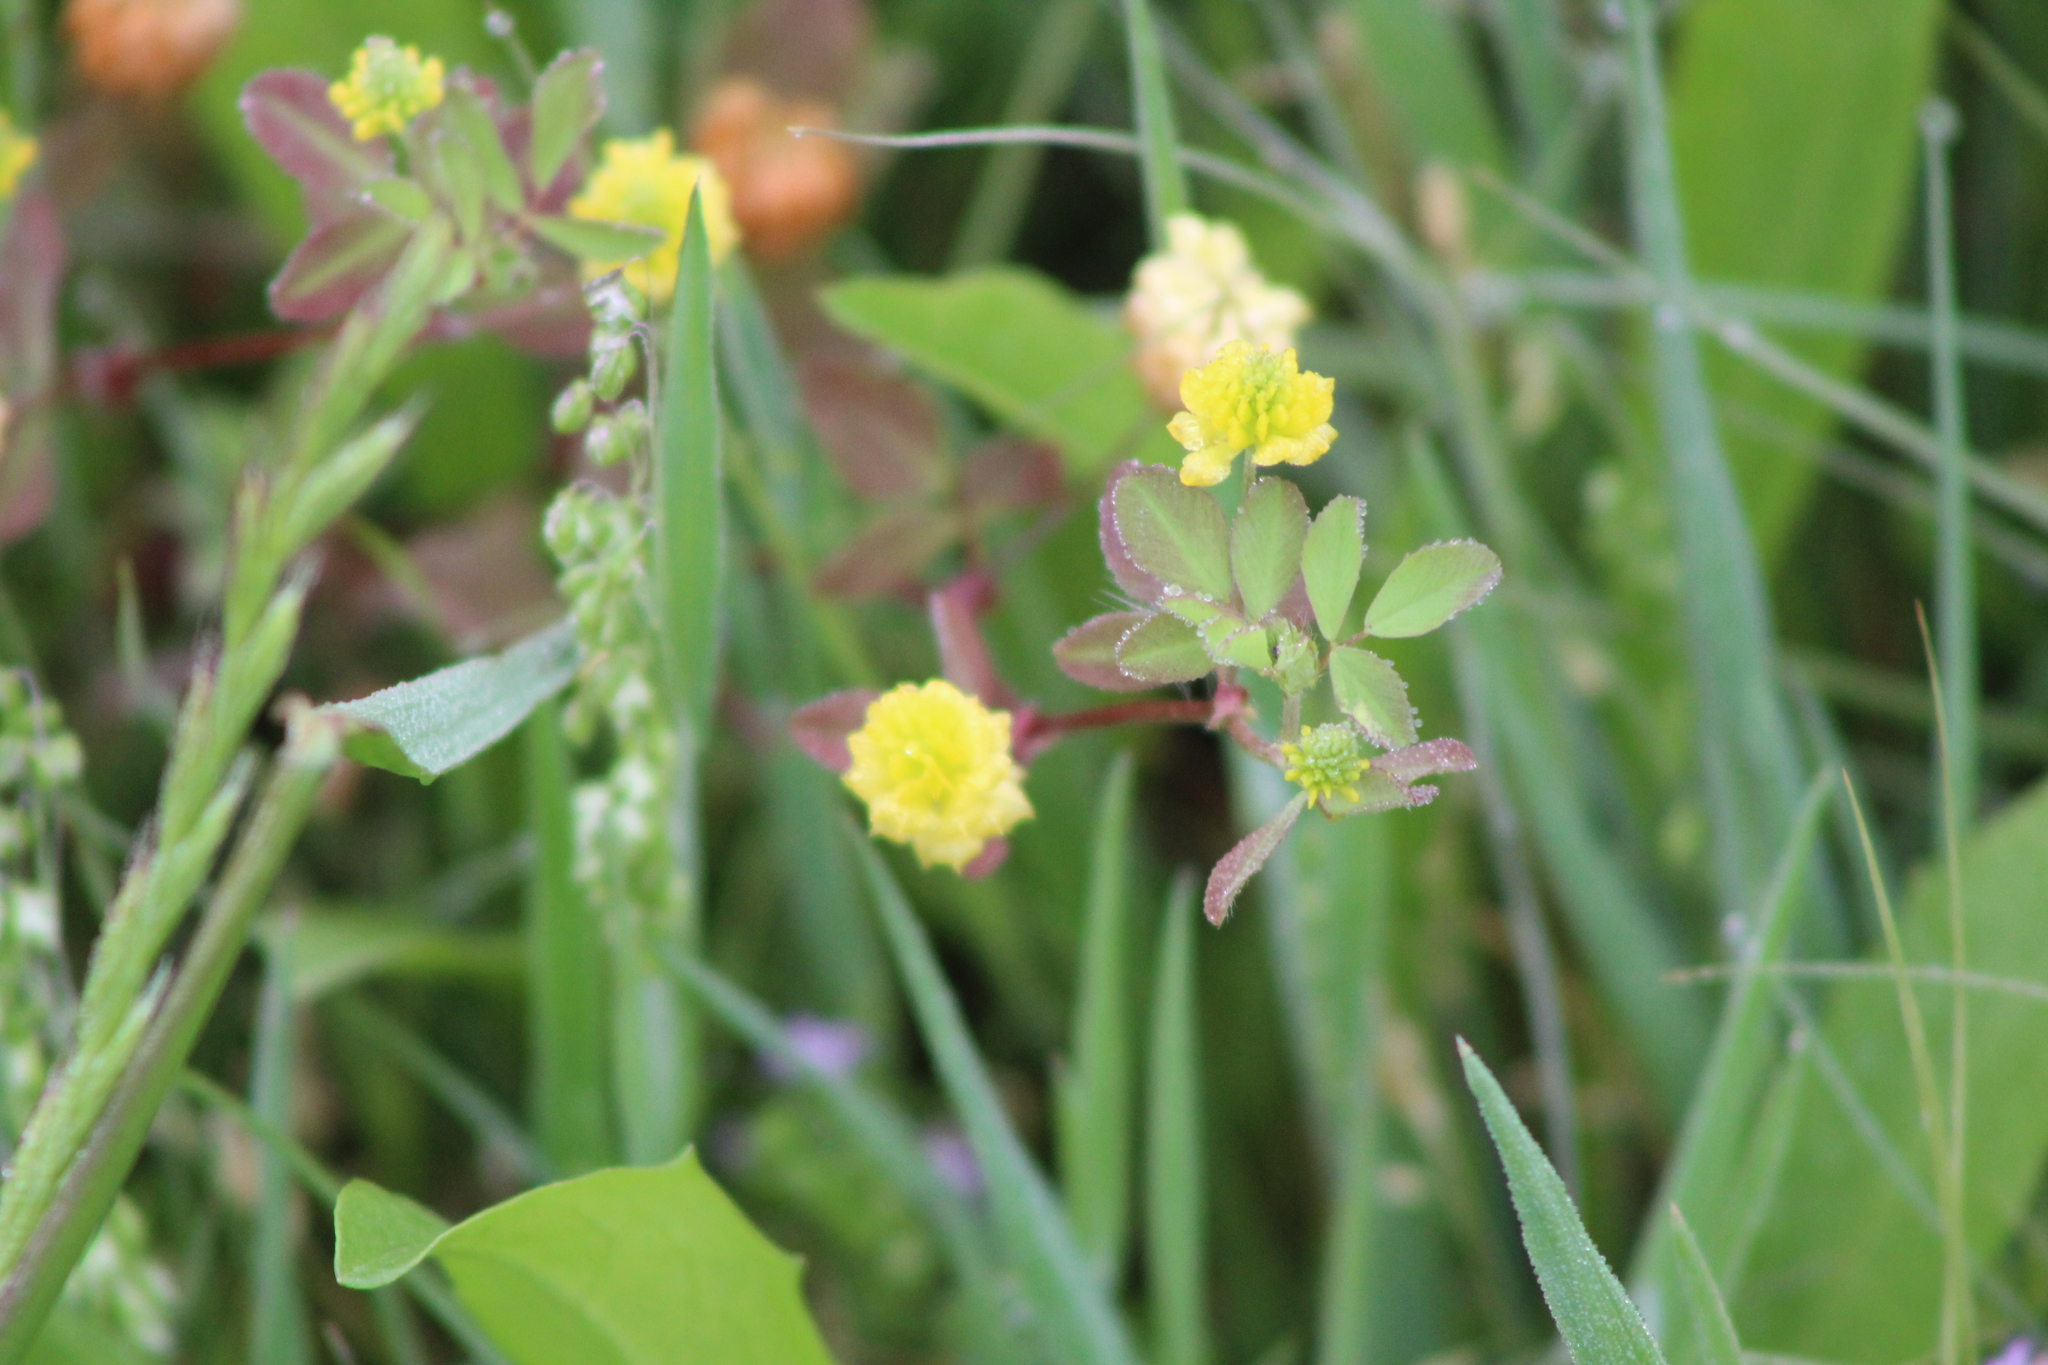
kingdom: Plantae
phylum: Tracheophyta
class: Magnoliopsida
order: Fabales
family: Fabaceae
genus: Trifolium
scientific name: Trifolium campestre
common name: Field clover
